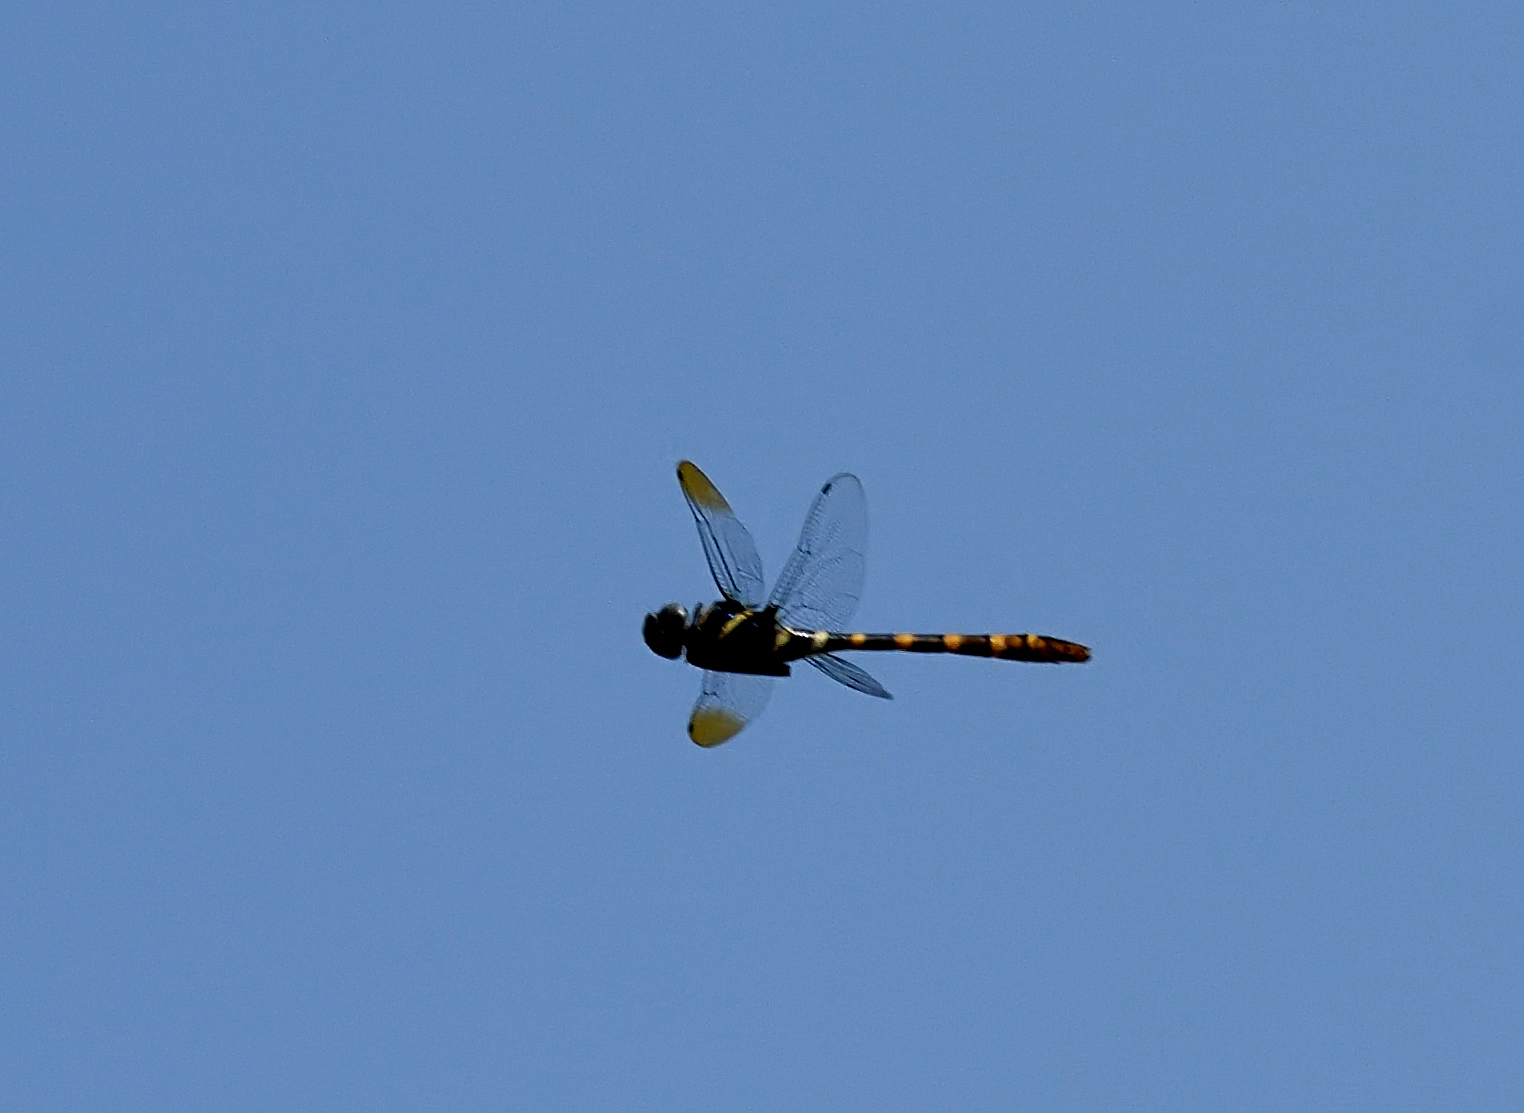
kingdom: Animalia
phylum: Arthropoda
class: Insecta
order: Odonata
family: Macromiidae
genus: Epophthalmia
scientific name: Epophthalmia vittata
